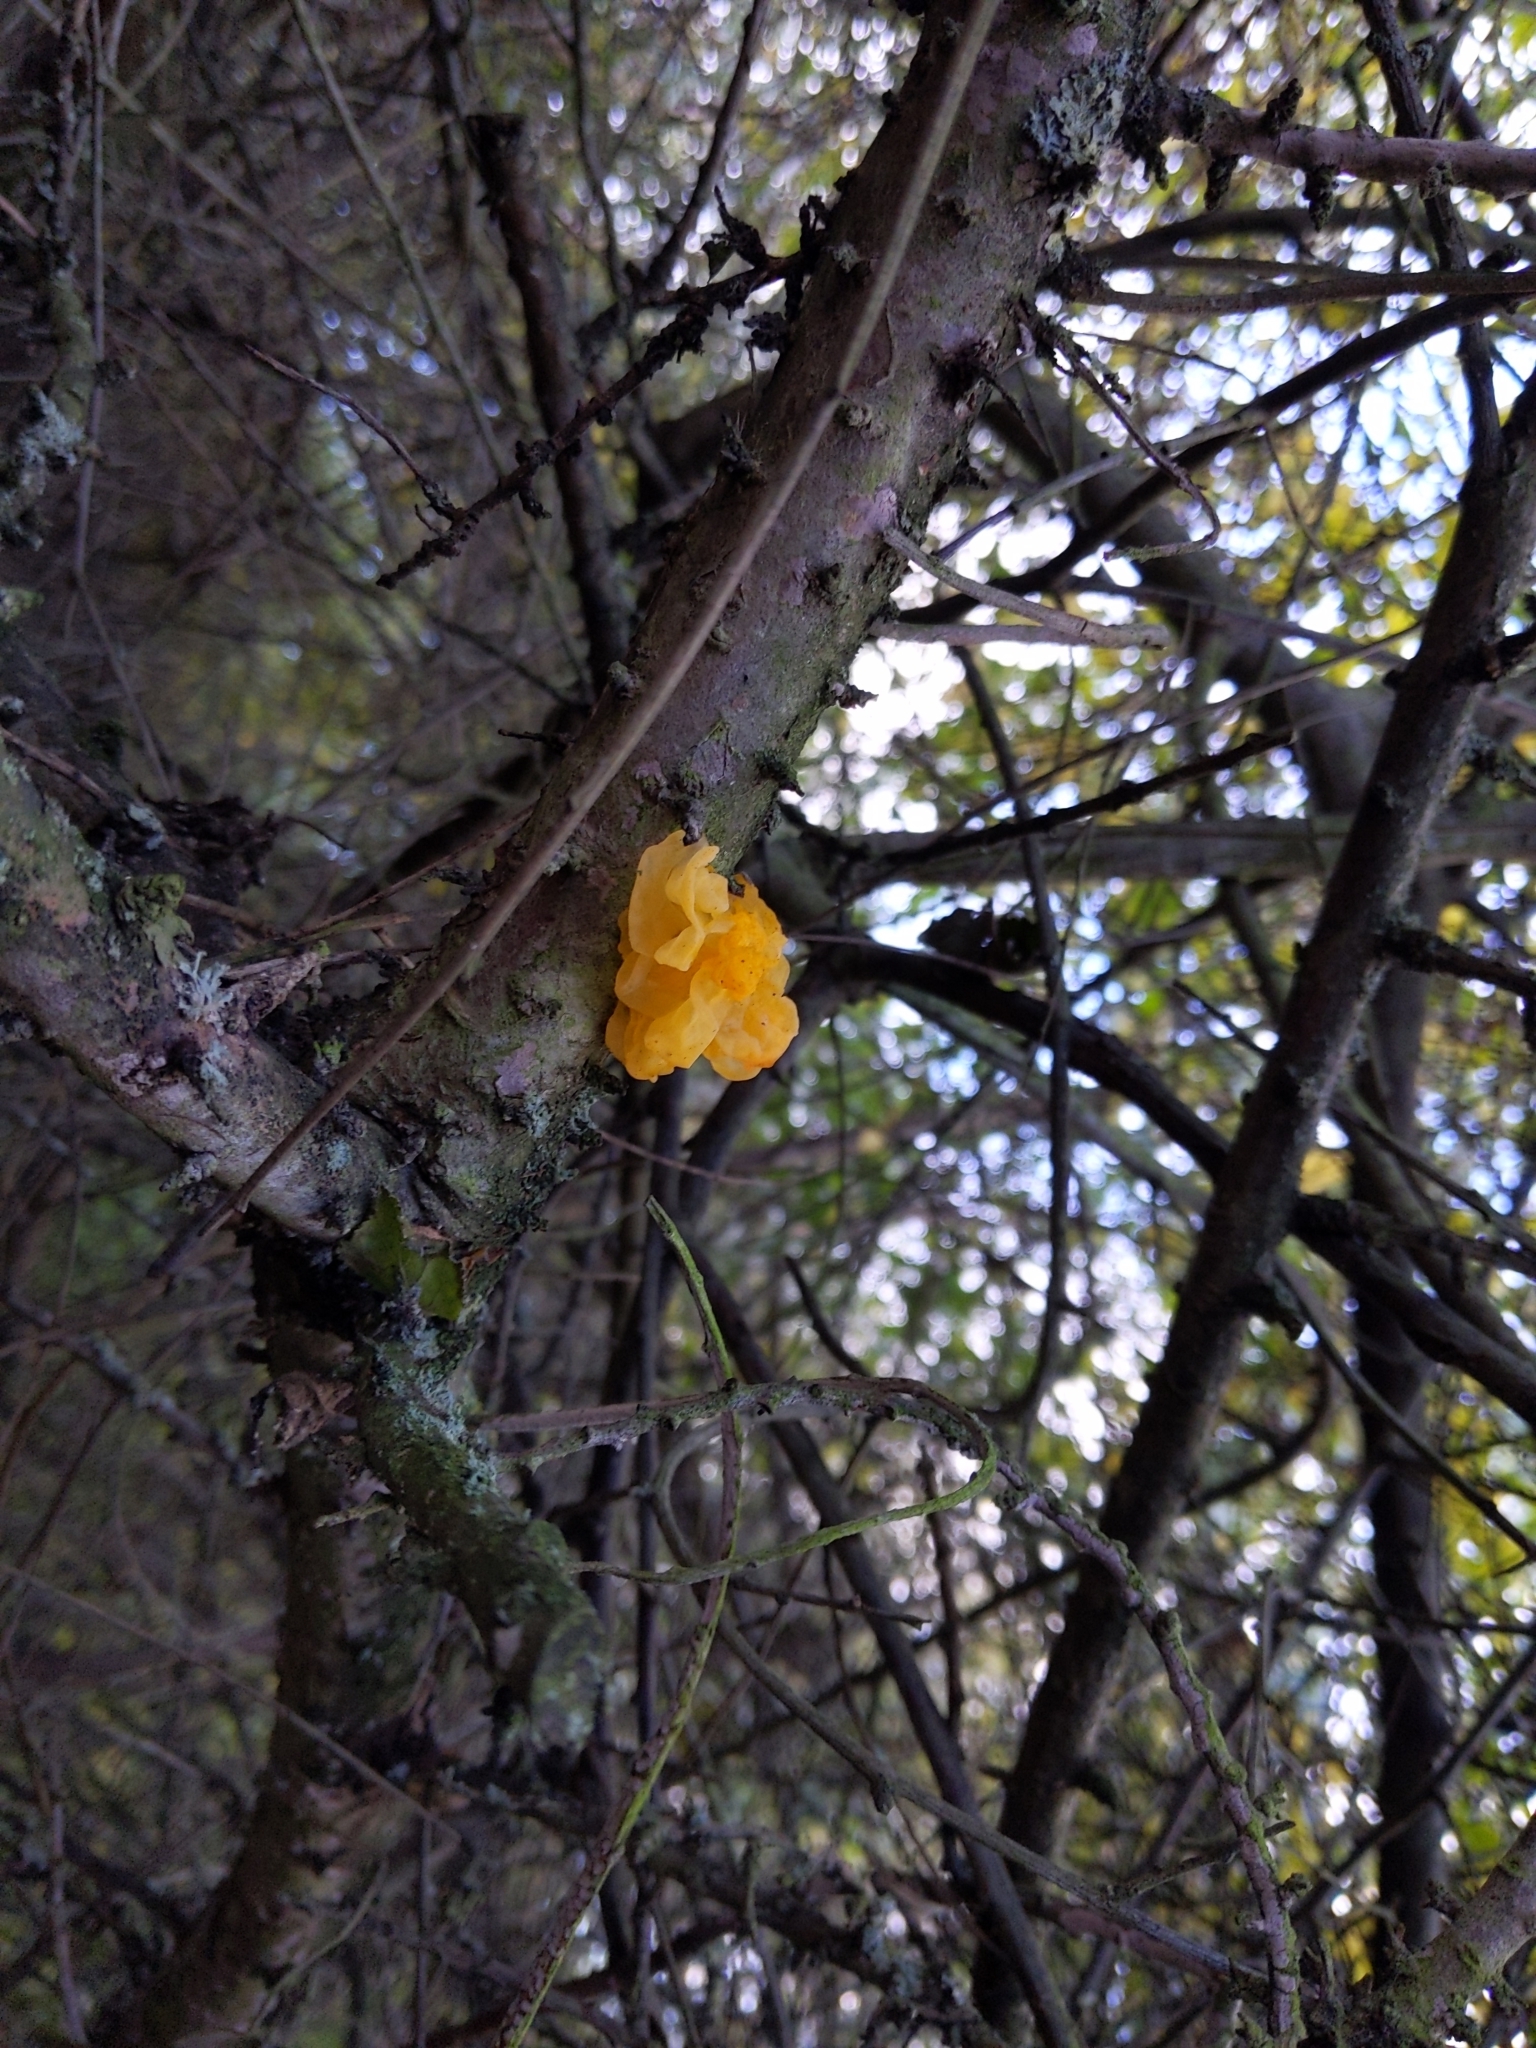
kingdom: Fungi
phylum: Basidiomycota
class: Tremellomycetes
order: Tremellales
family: Tremellaceae
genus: Tremella
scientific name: Tremella mesenterica
